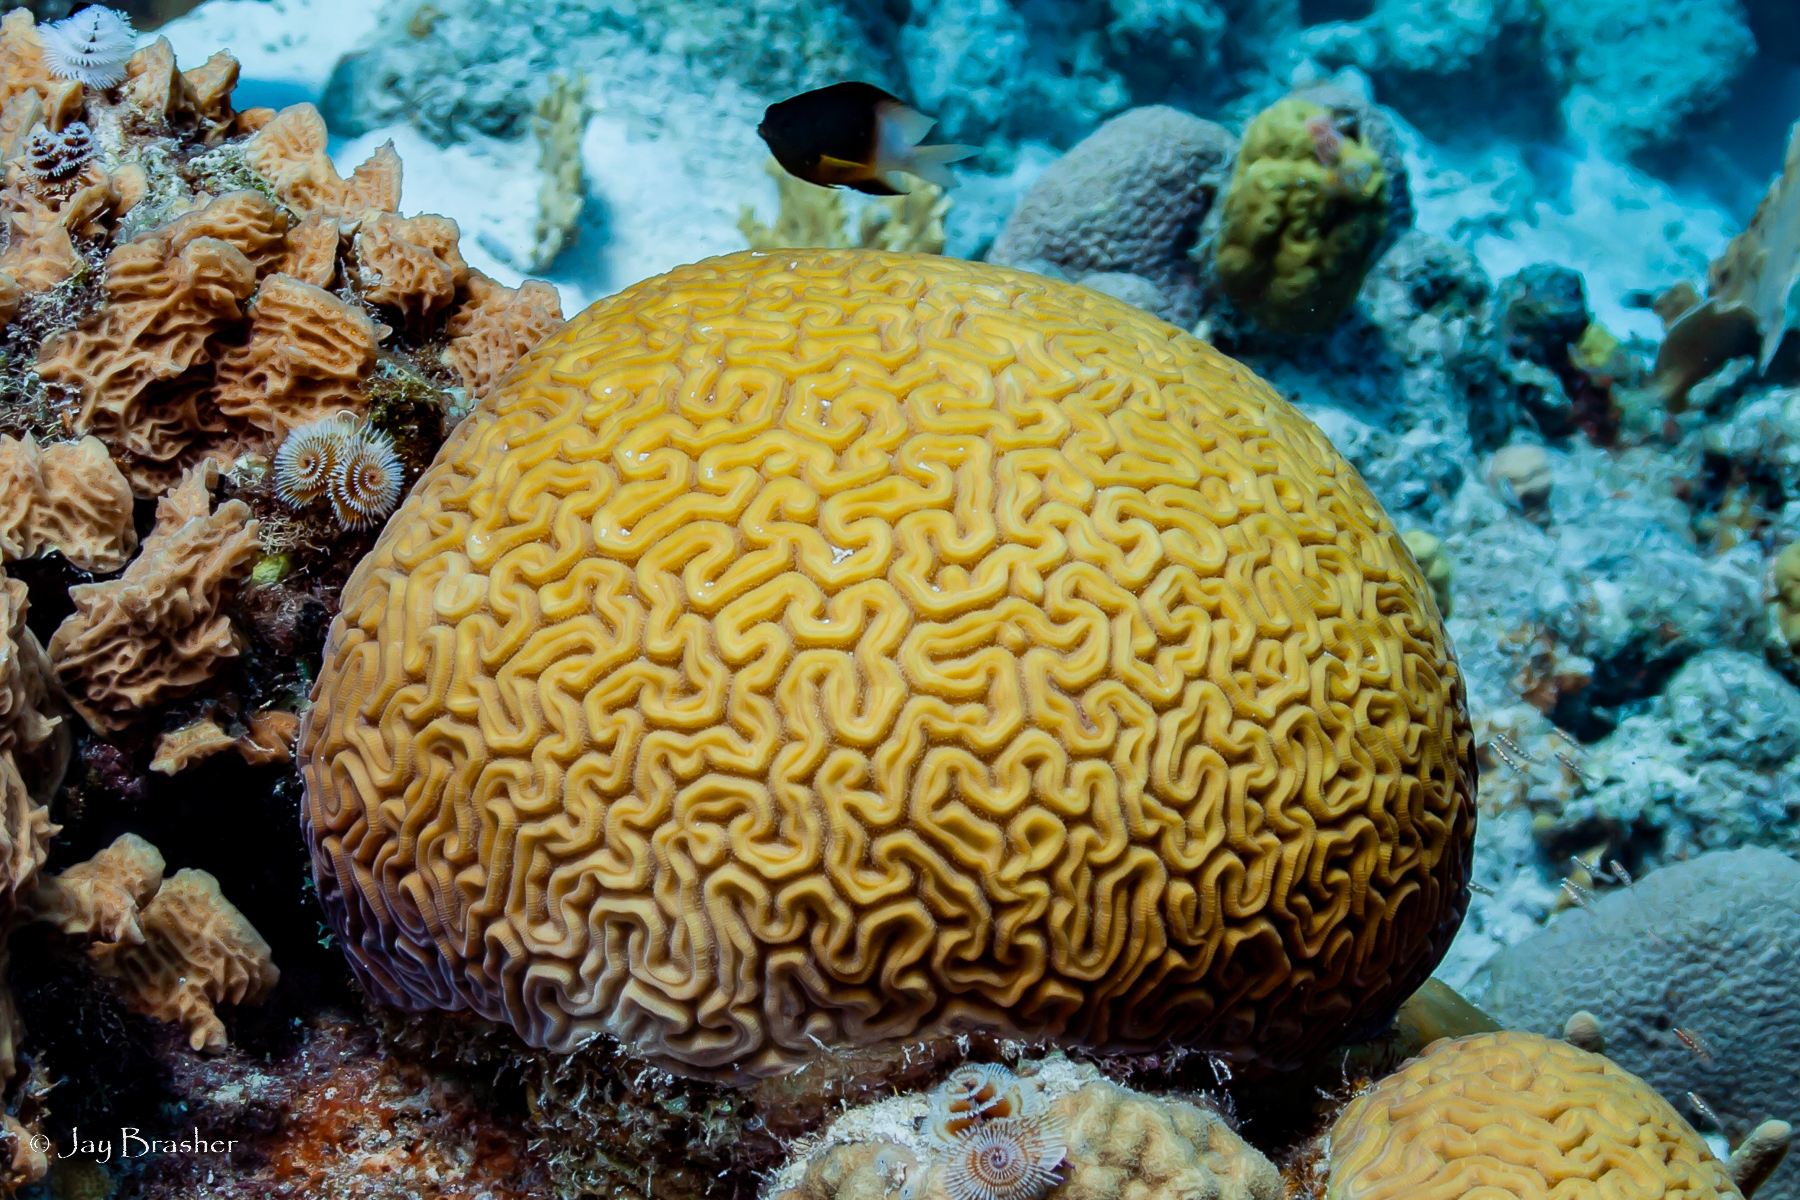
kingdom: Animalia
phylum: Cnidaria
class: Anthozoa
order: Scleractinia
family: Faviidae
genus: Diploria
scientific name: Diploria labyrinthiformis
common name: Grooved brain coral
